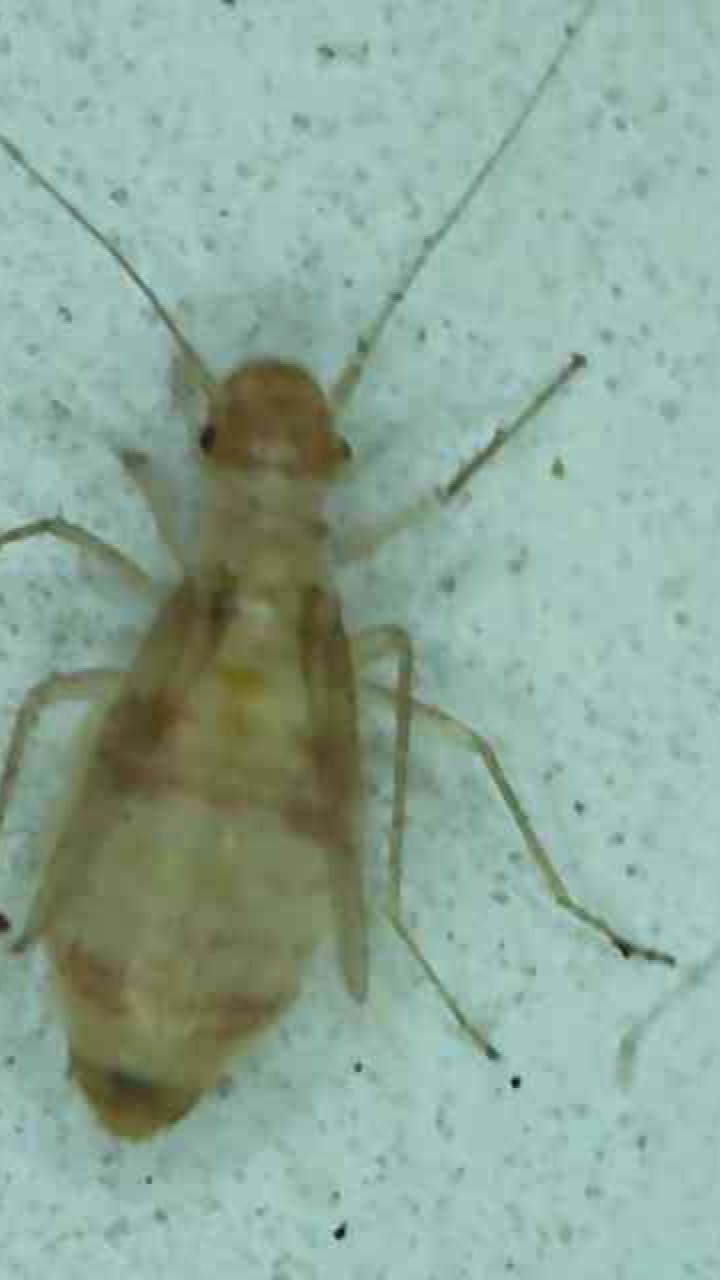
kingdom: Animalia
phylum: Arthropoda
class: Insecta
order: Psocodea
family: Psyllipsocidae
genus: Dorypteryx
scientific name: Dorypteryx domestica
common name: Cave barklouse
